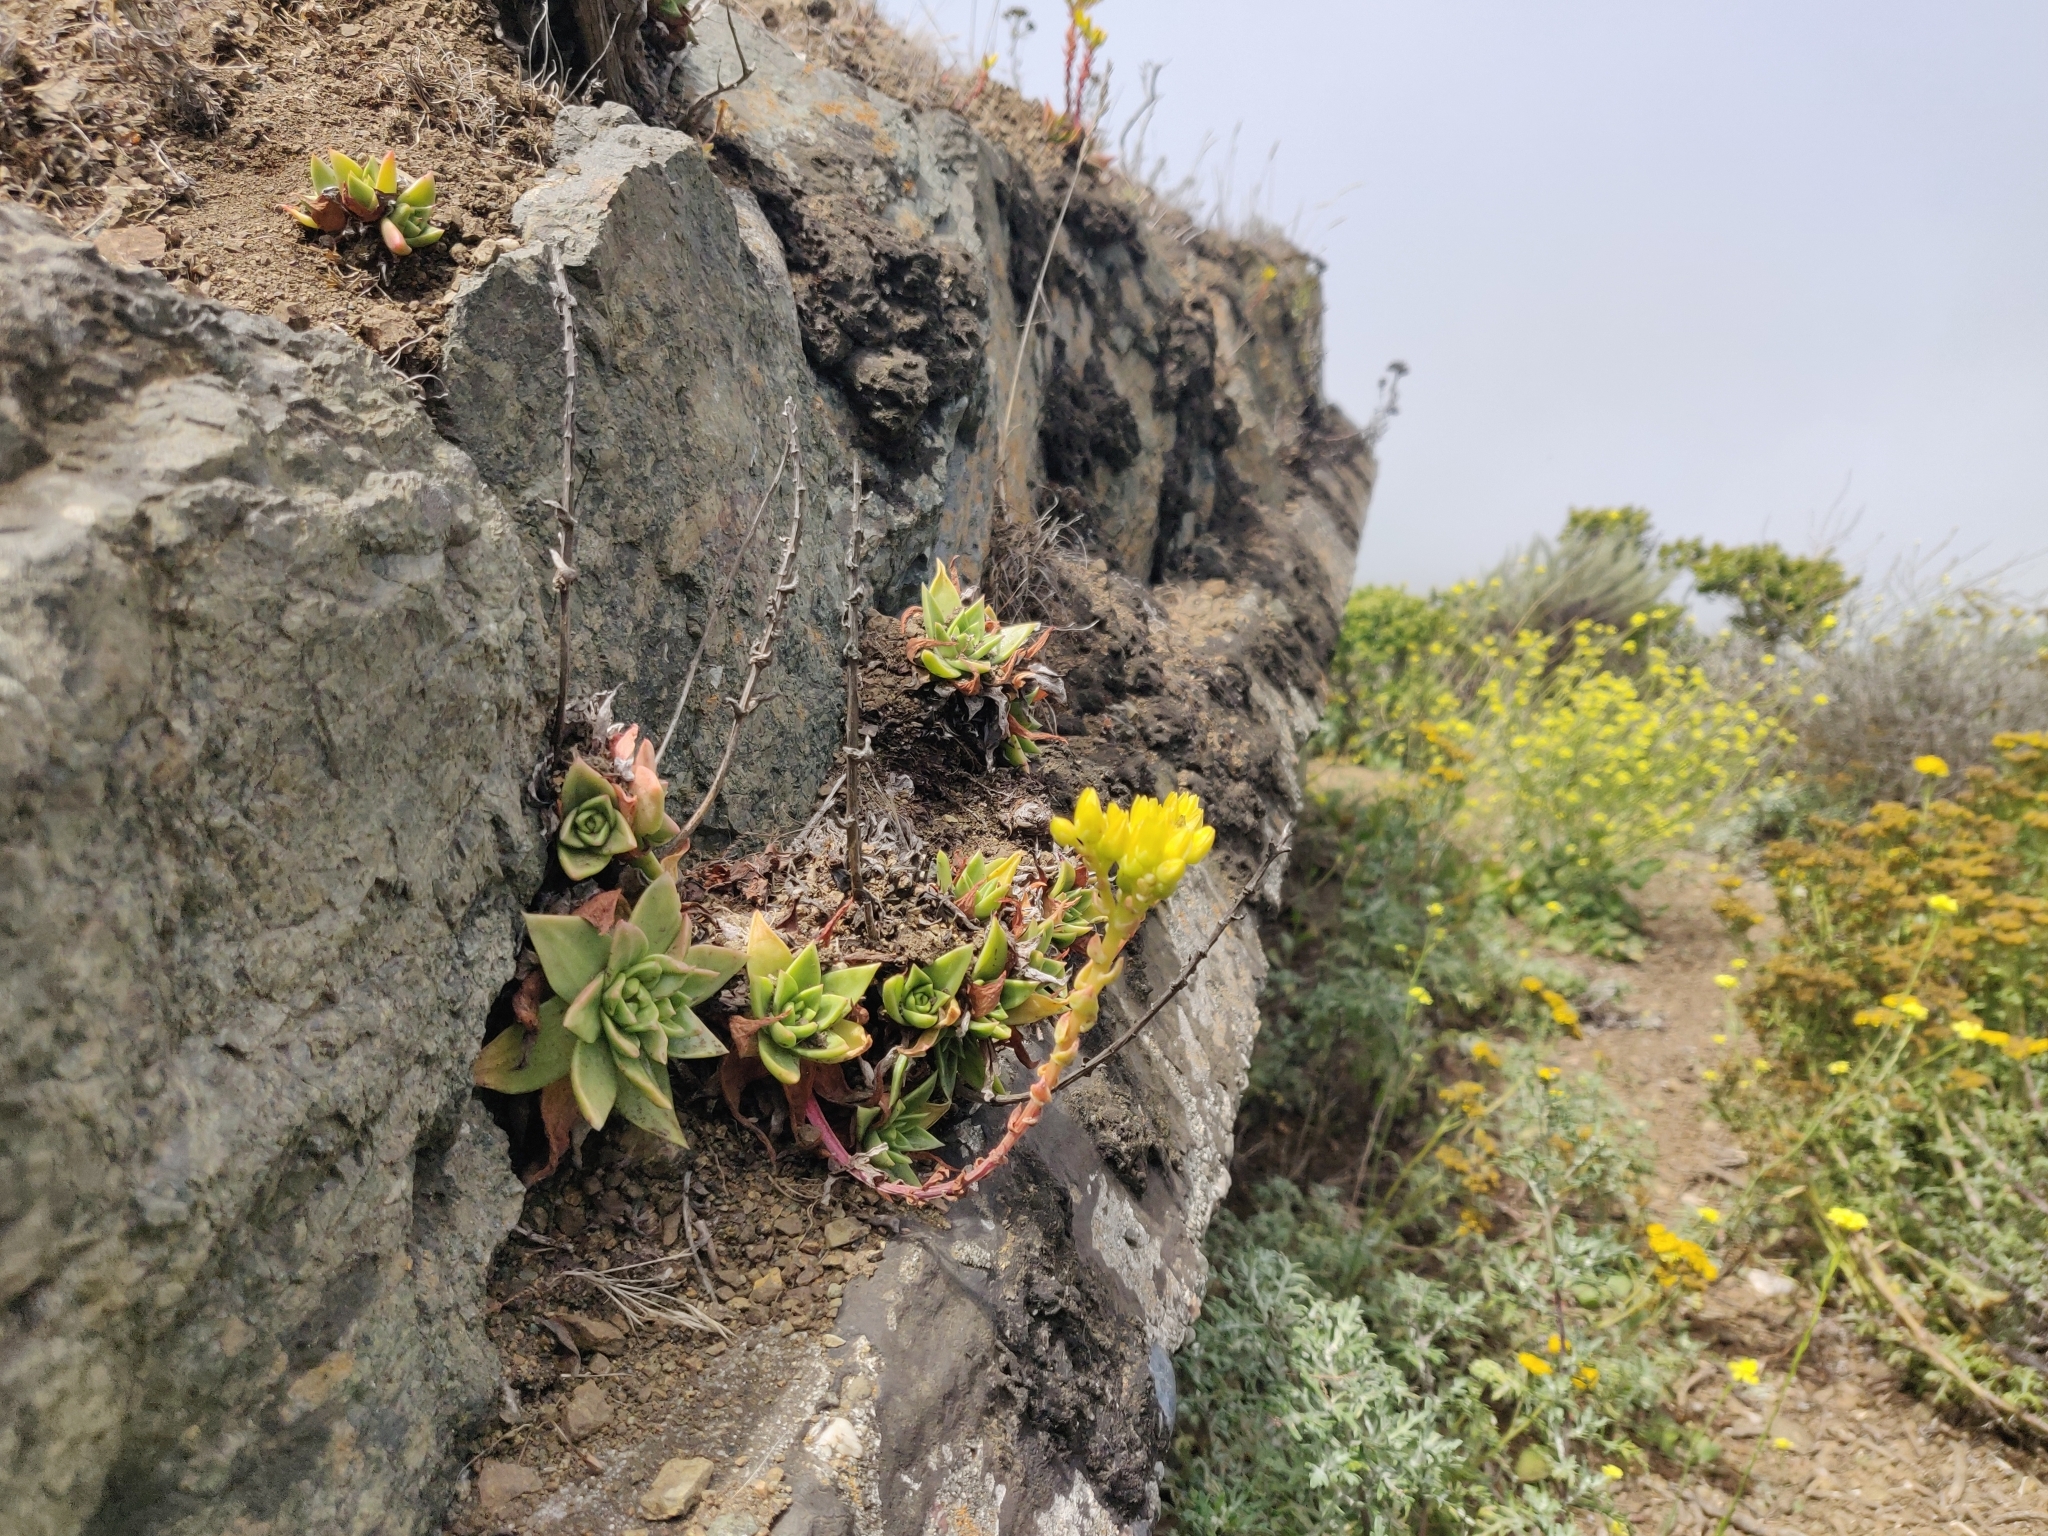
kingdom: Plantae
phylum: Tracheophyta
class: Magnoliopsida
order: Saxifragales
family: Crassulaceae
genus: Dudleya
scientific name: Dudleya caespitosa
